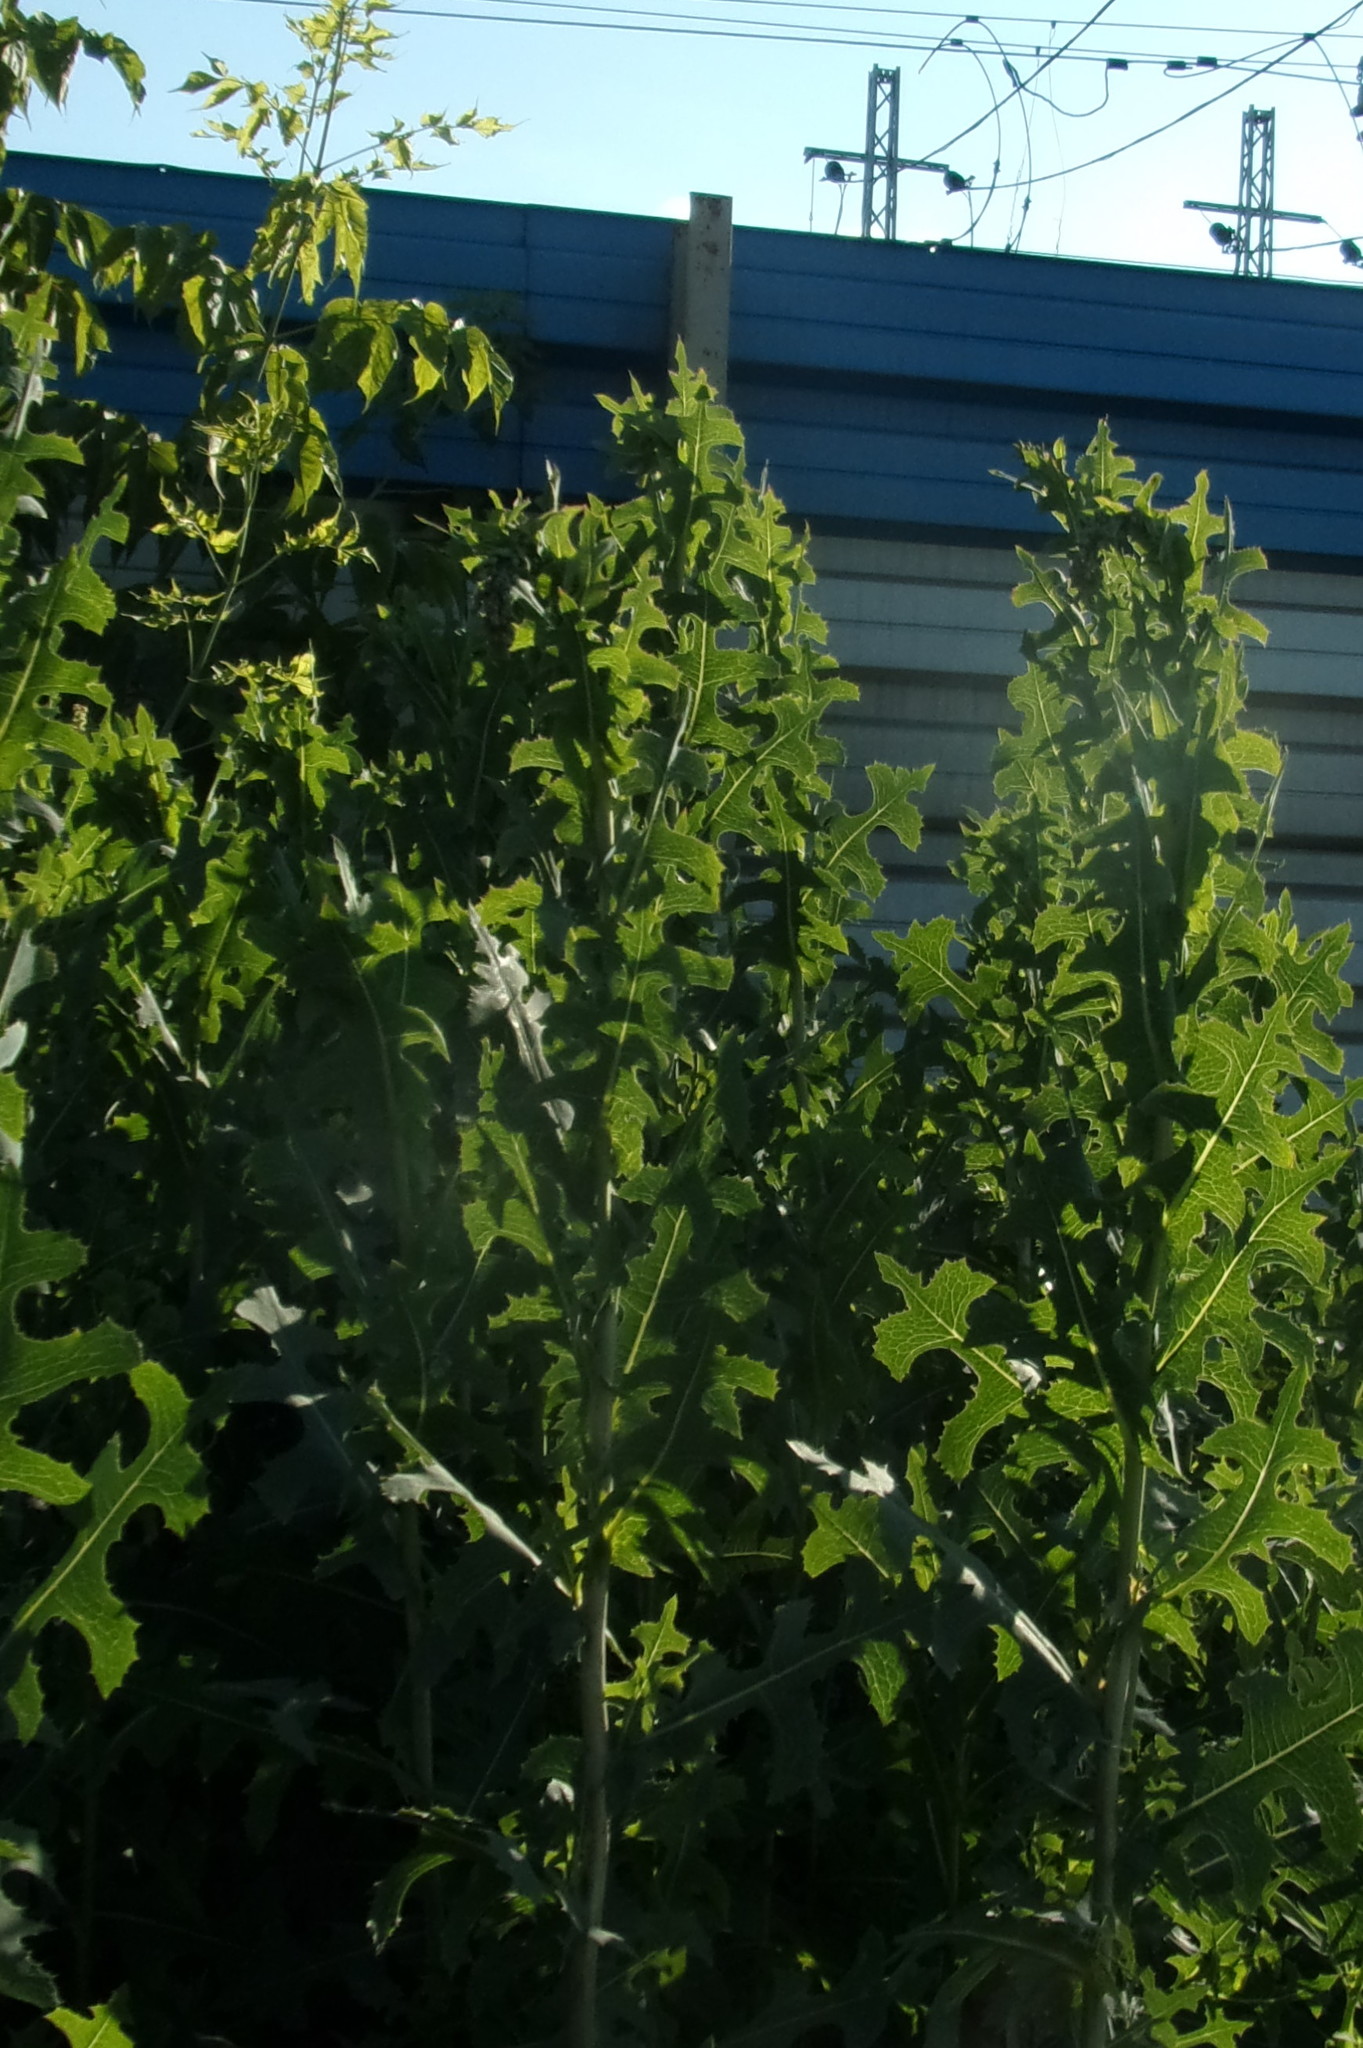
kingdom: Plantae
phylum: Tracheophyta
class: Magnoliopsida
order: Asterales
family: Asteraceae
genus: Lactuca
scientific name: Lactuca serriola
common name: Prickly lettuce
